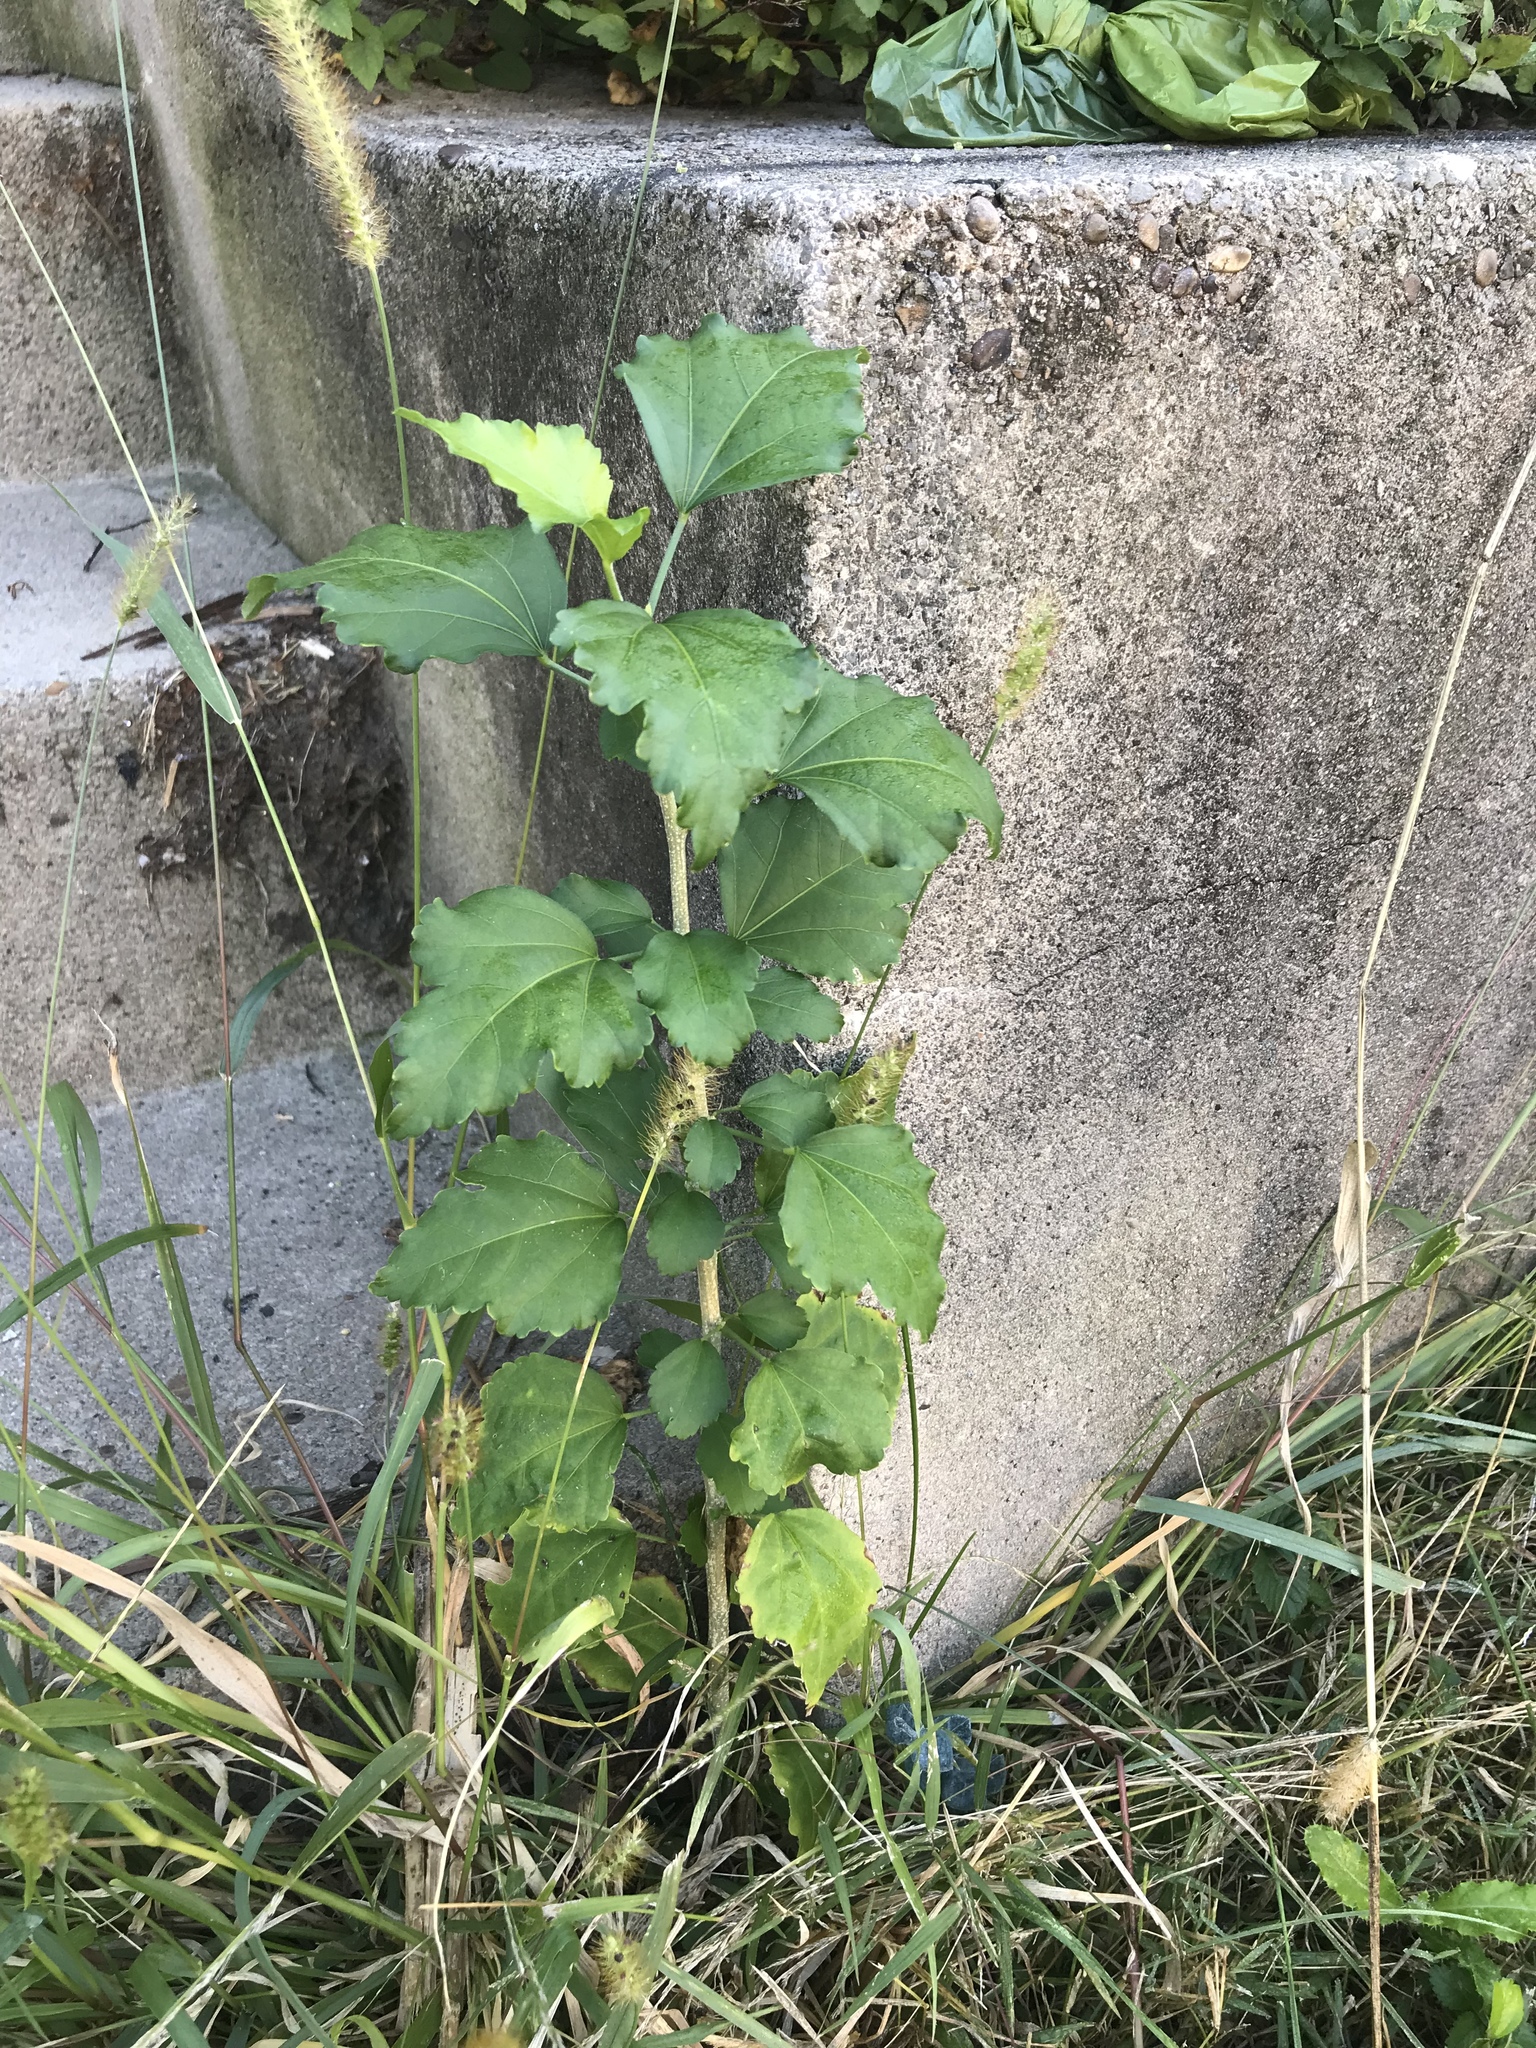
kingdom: Plantae
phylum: Tracheophyta
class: Magnoliopsida
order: Malvales
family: Malvaceae
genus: Hibiscus
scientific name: Hibiscus syriacus
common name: Syrian ketmia
